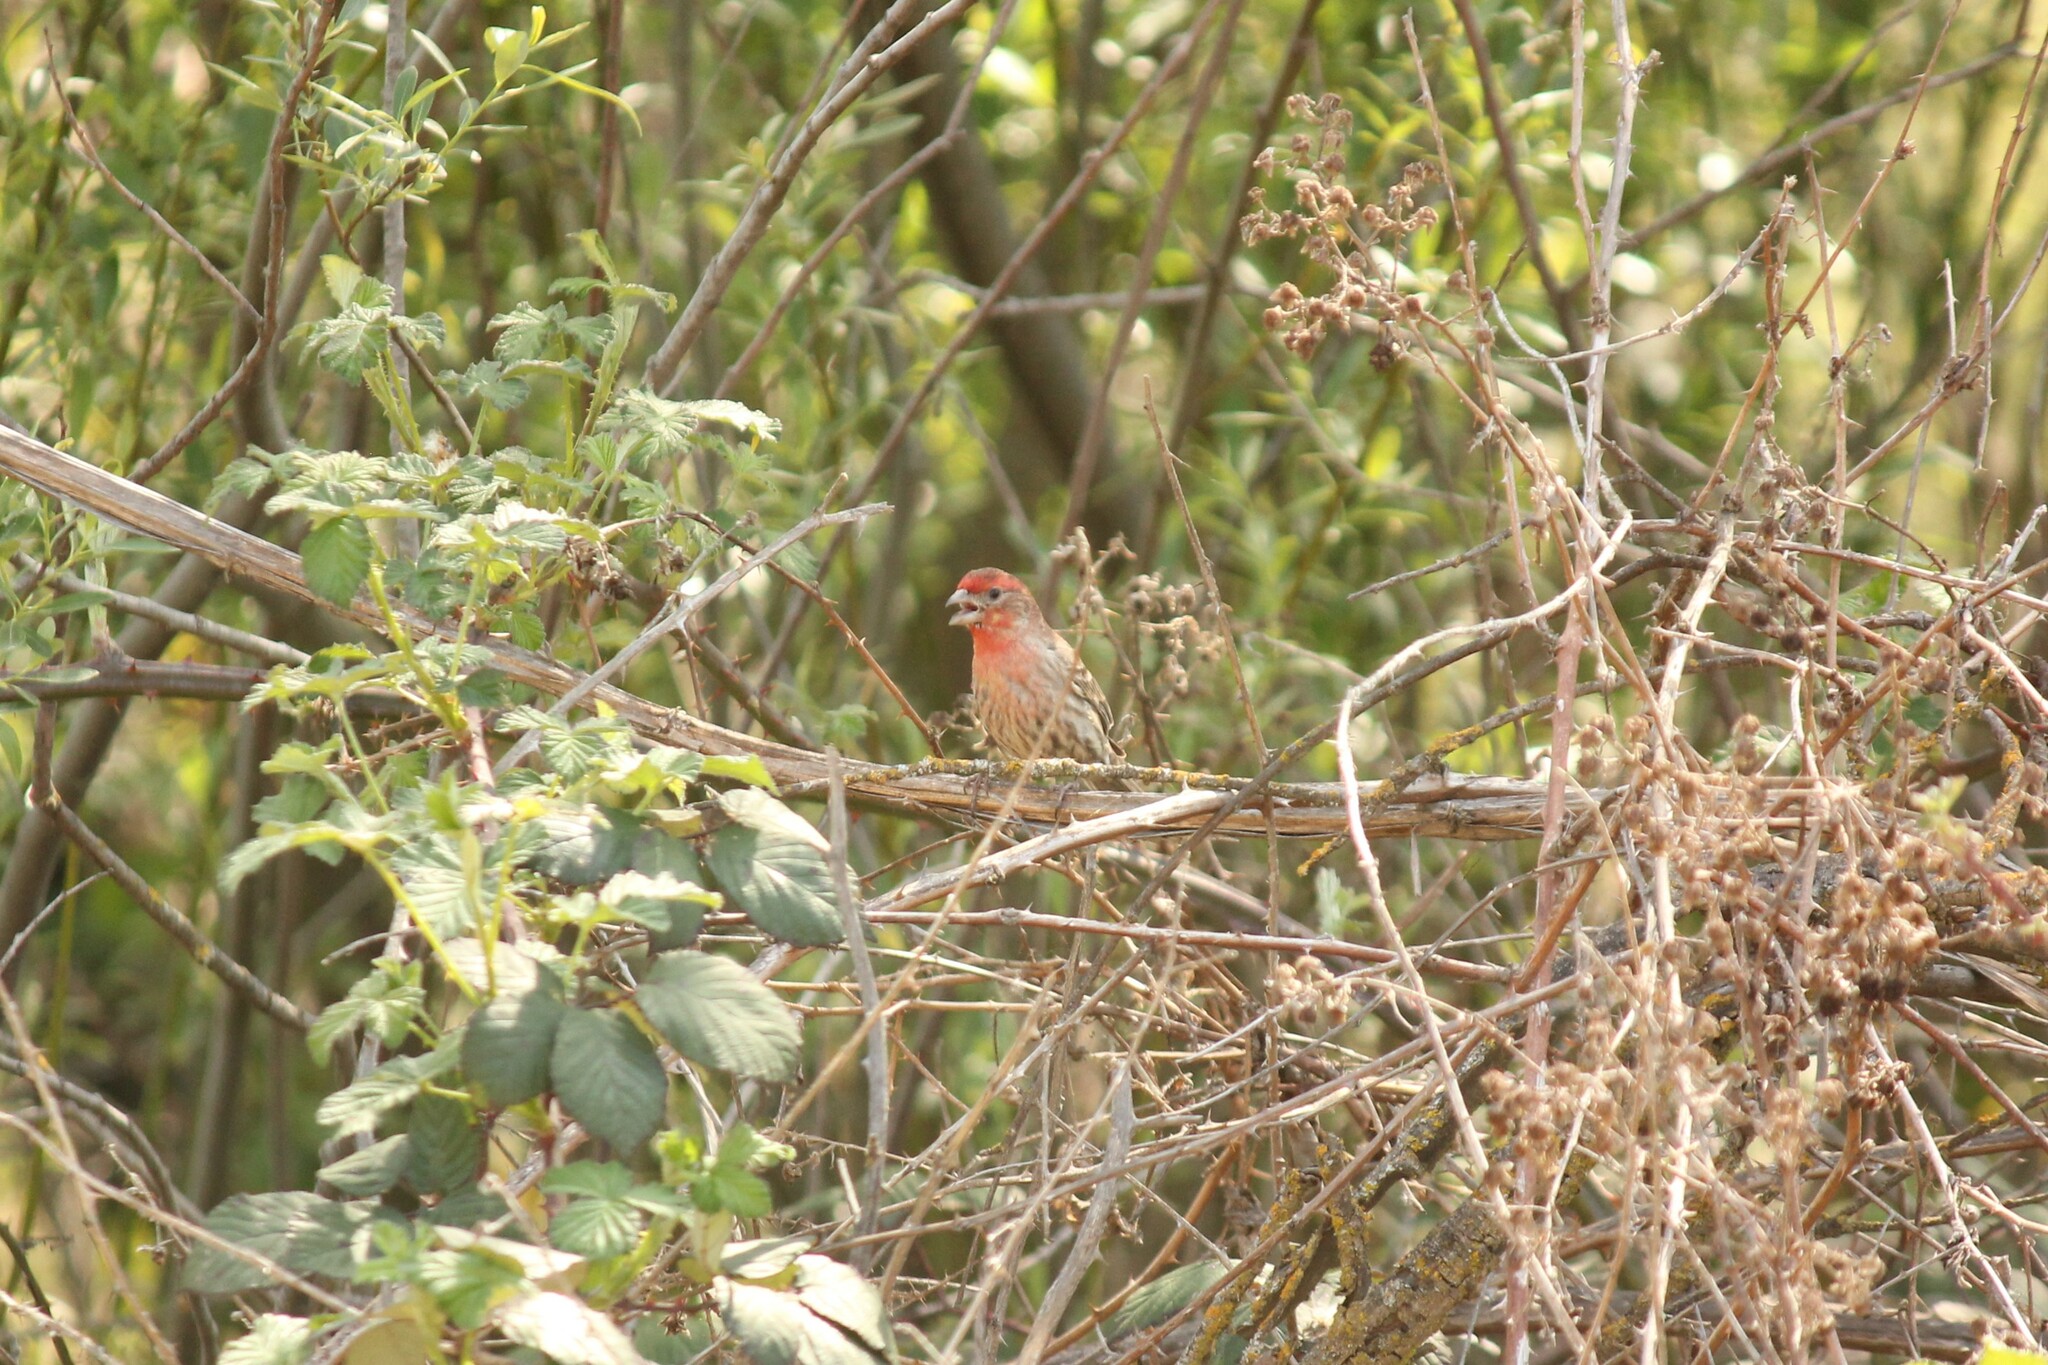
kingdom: Animalia
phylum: Chordata
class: Aves
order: Passeriformes
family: Fringillidae
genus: Haemorhous
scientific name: Haemorhous mexicanus
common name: House finch
